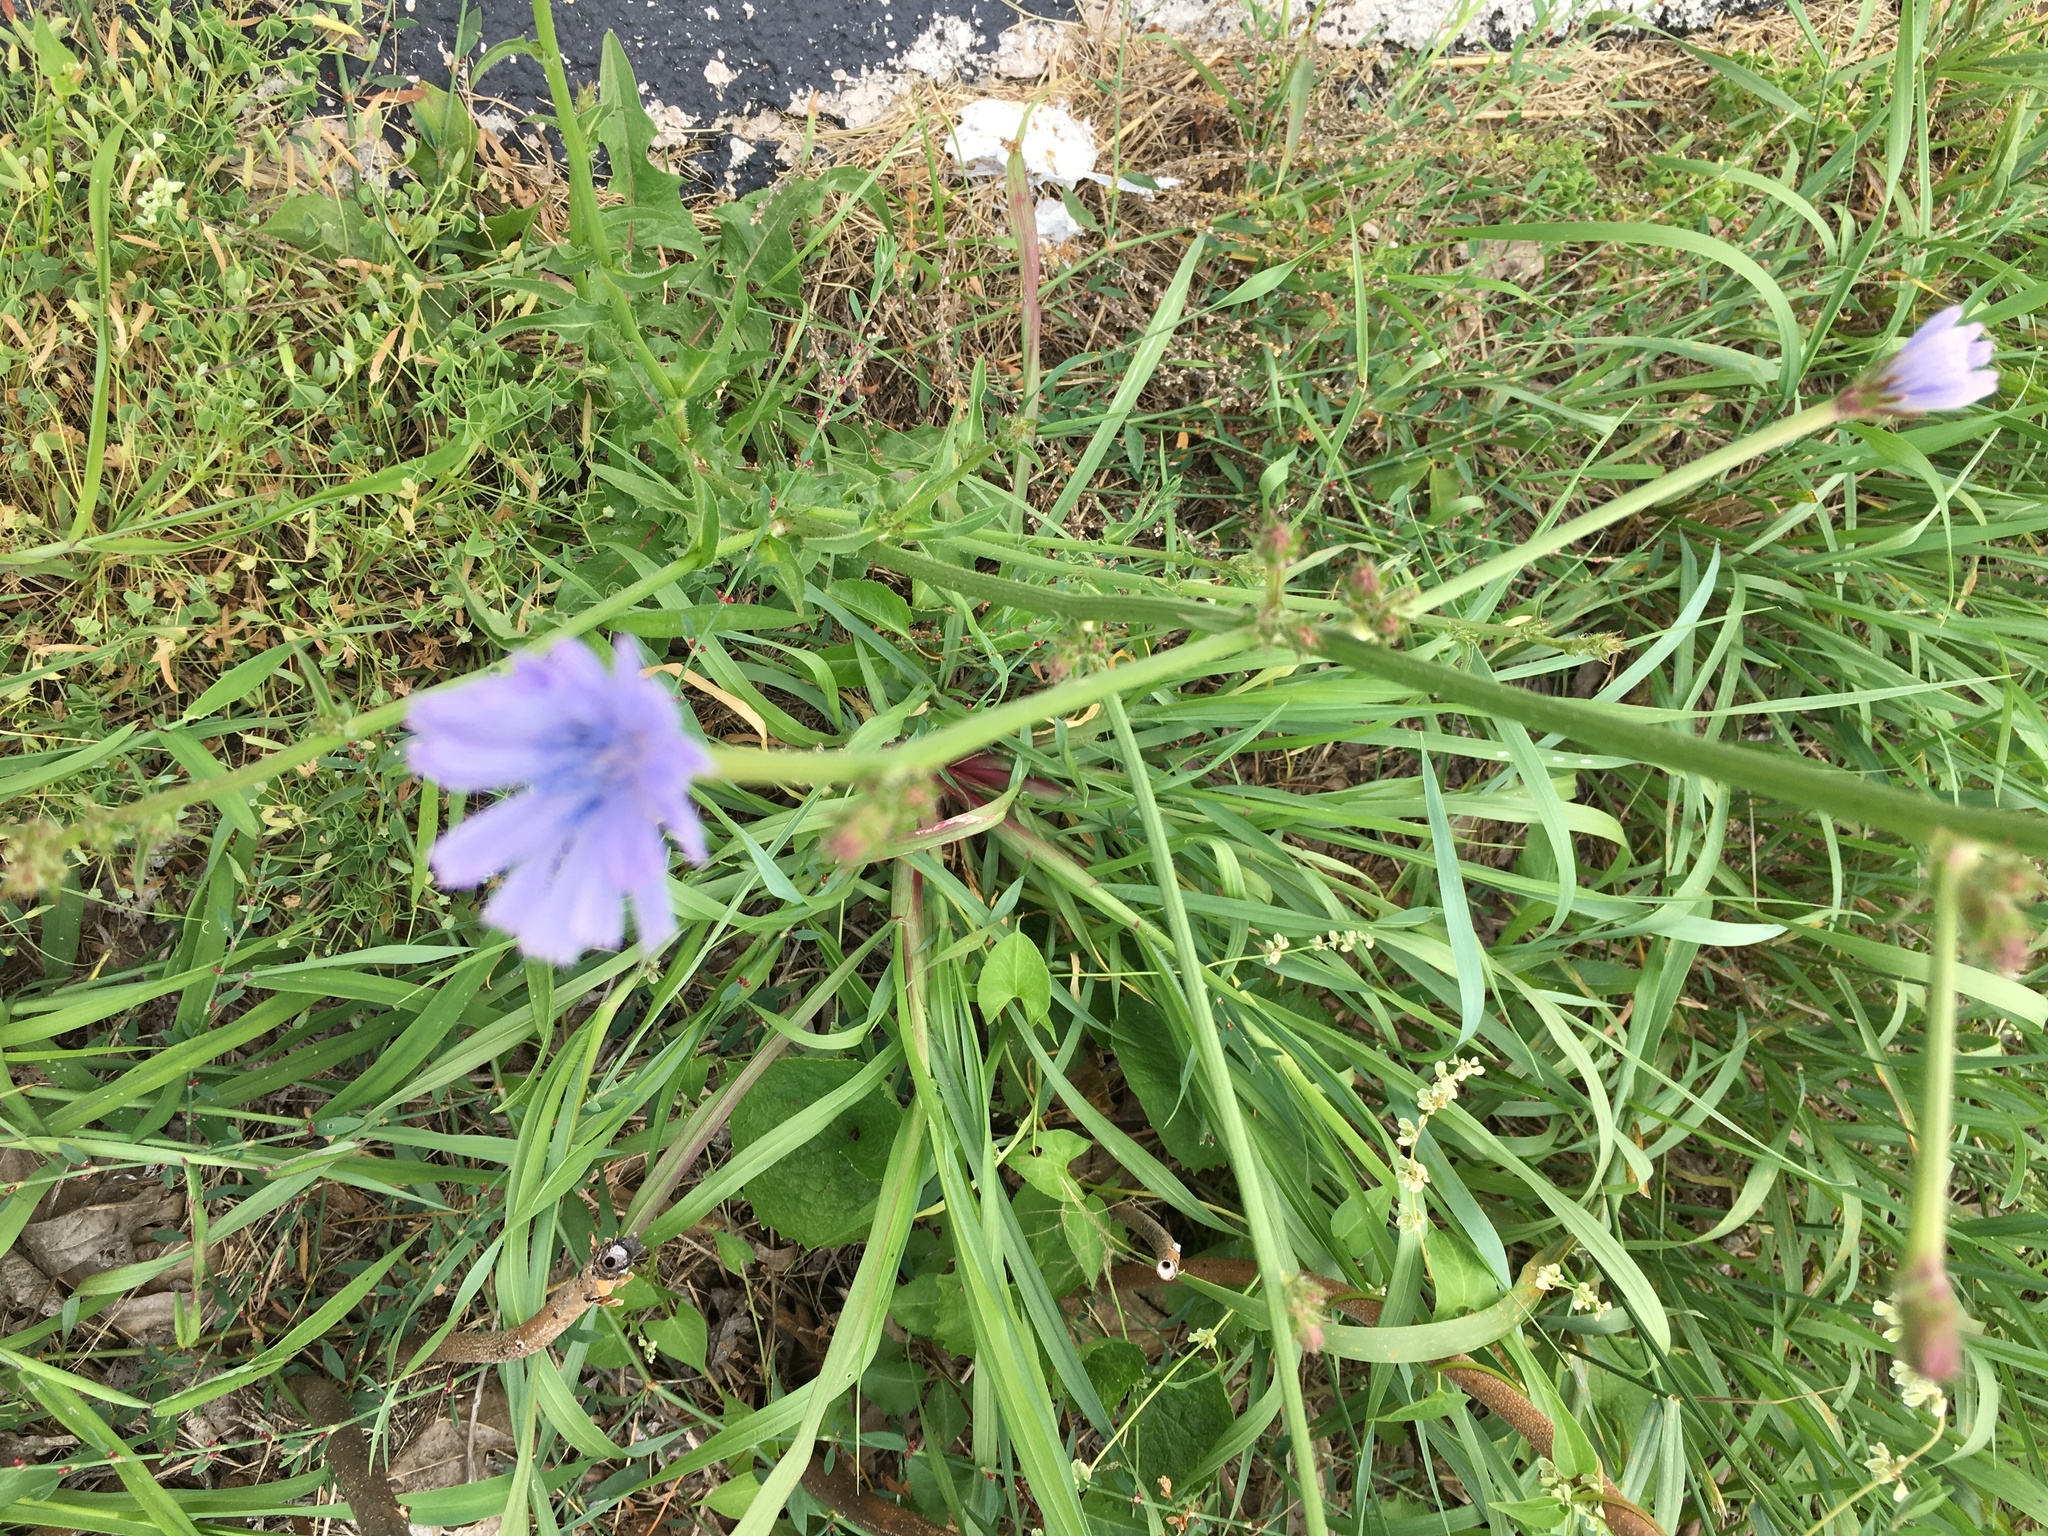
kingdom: Plantae
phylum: Tracheophyta
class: Magnoliopsida
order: Asterales
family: Asteraceae
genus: Cichorium
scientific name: Cichorium intybus
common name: Chicory
